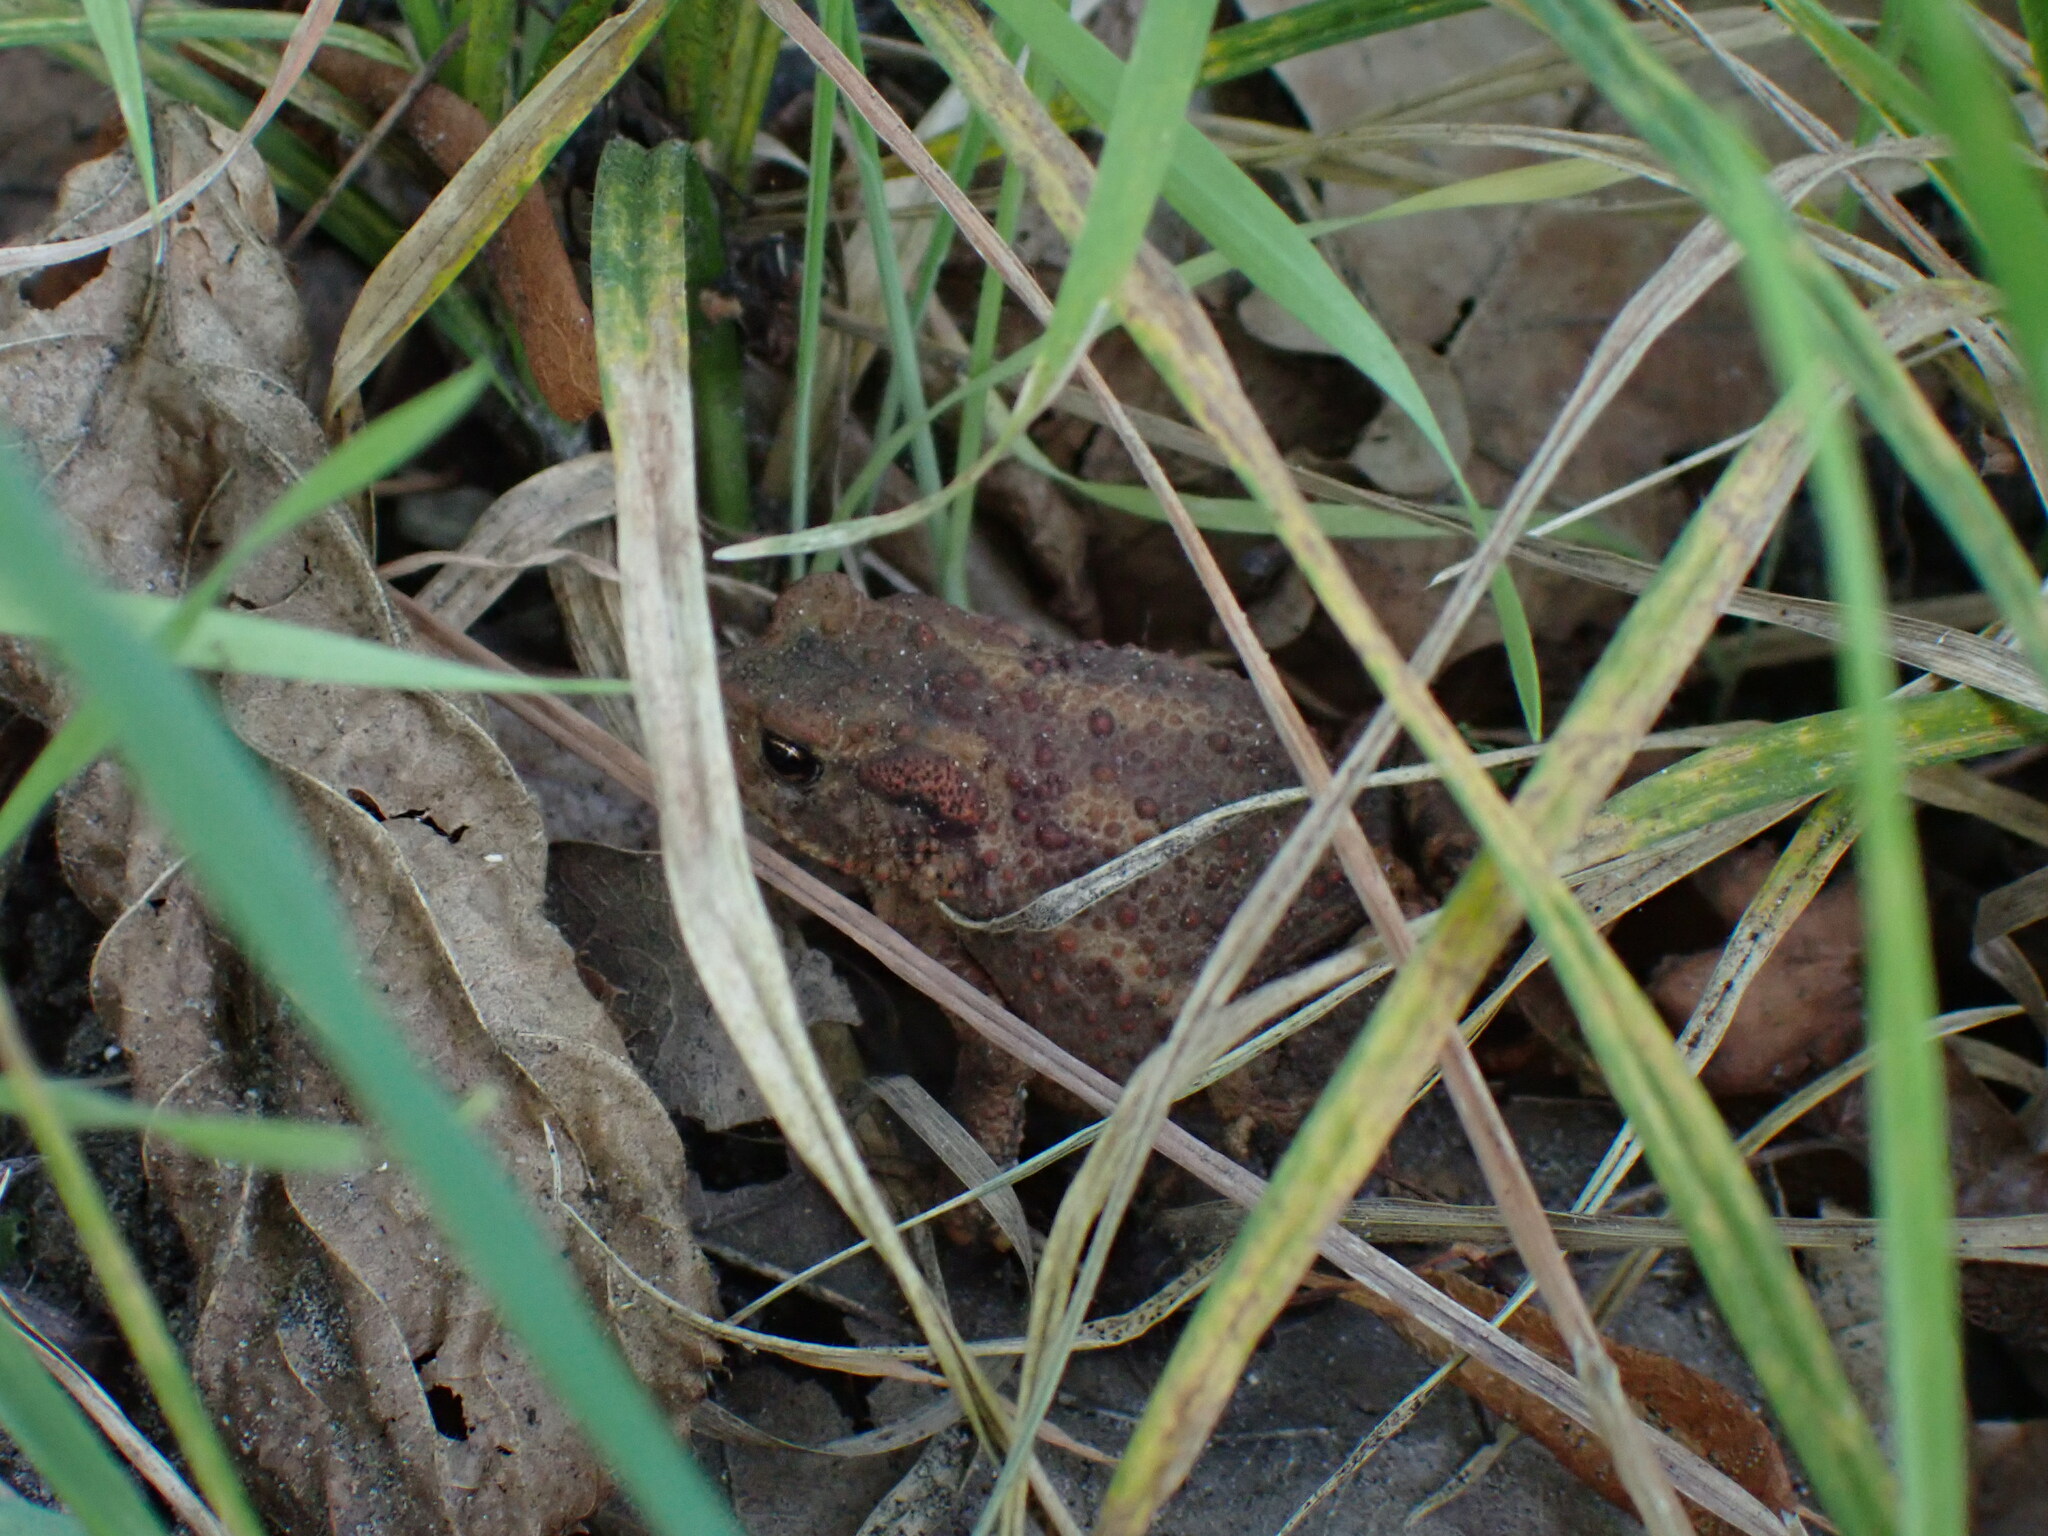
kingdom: Animalia
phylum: Chordata
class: Amphibia
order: Anura
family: Bufonidae
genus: Bufo
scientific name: Bufo bufo
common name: Common toad
